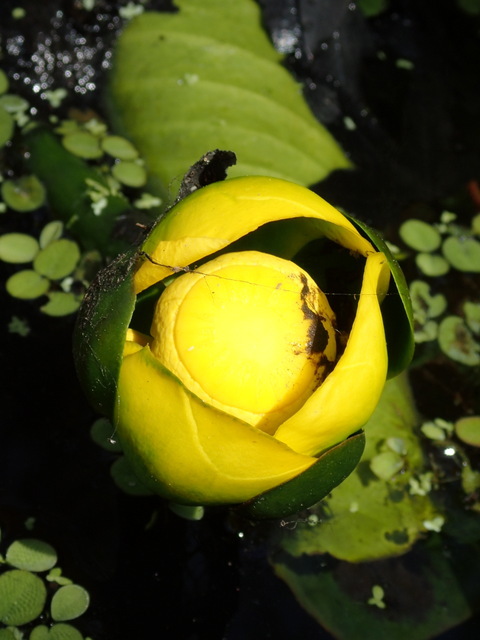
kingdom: Plantae
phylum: Tracheophyta
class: Magnoliopsida
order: Nymphaeales
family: Nymphaeaceae
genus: Nuphar
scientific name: Nuphar advena
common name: Spatter-dock
